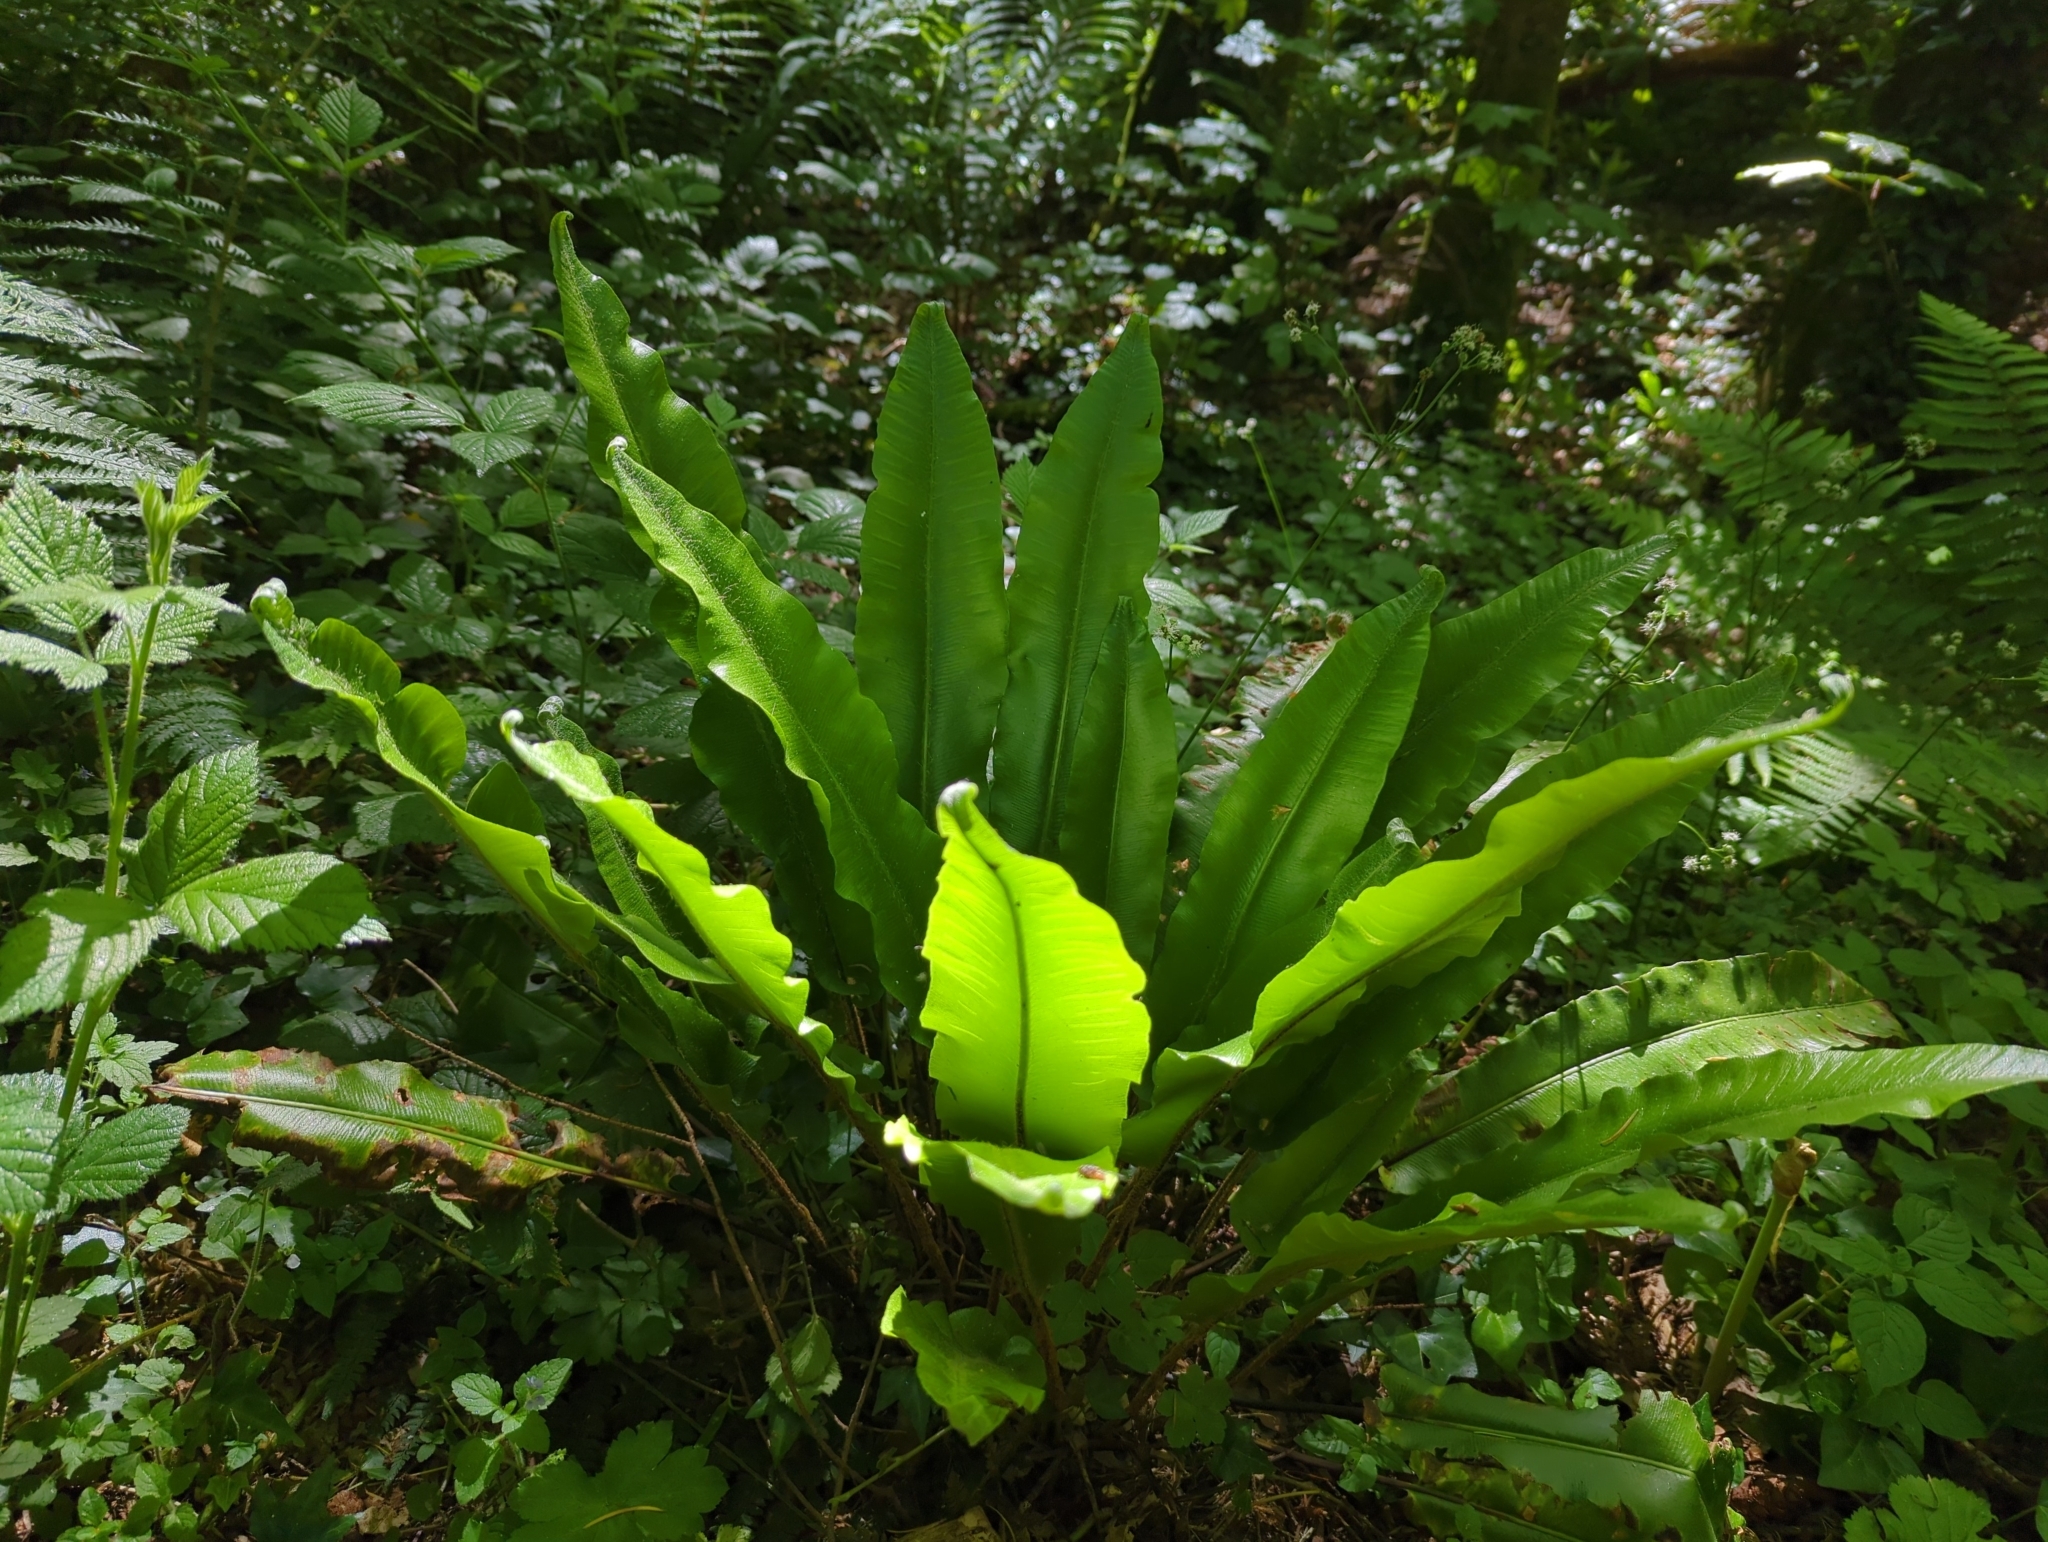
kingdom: Plantae
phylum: Tracheophyta
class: Polypodiopsida
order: Polypodiales
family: Aspleniaceae
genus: Asplenium
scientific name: Asplenium scolopendrium
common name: Hart's-tongue fern
